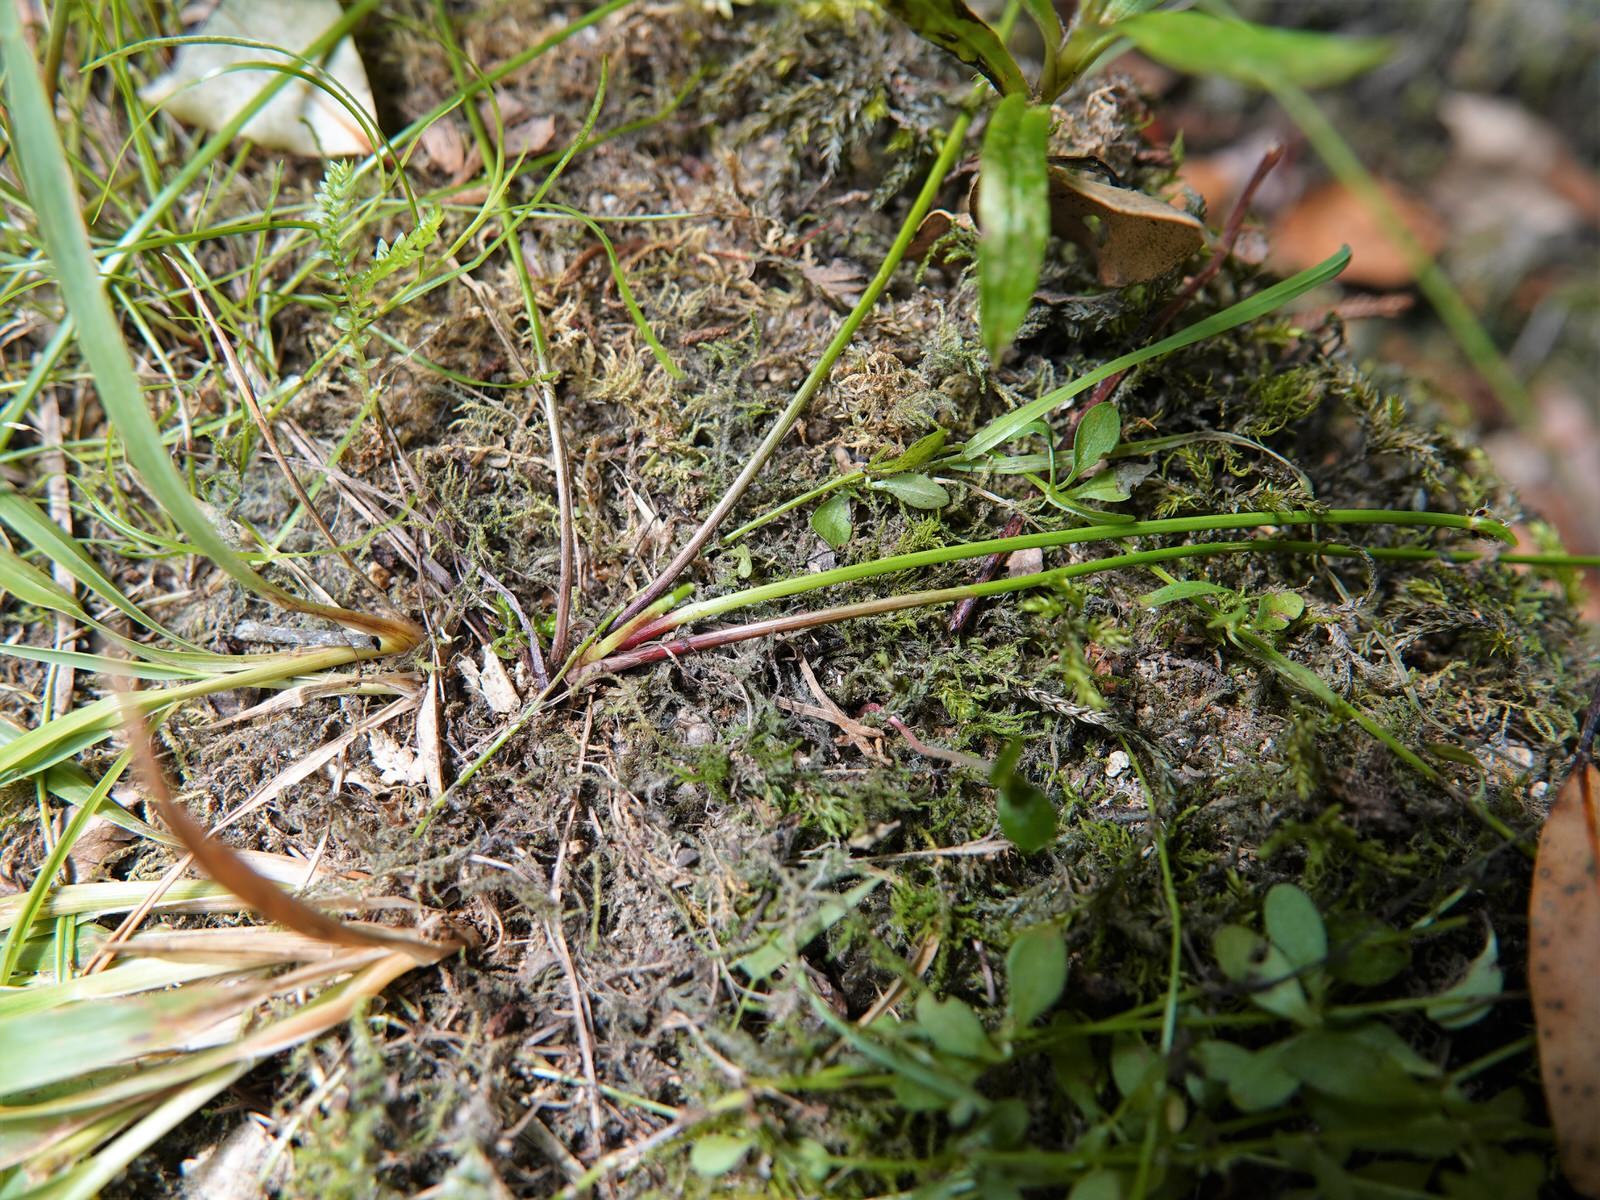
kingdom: Plantae
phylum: Tracheophyta
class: Liliopsida
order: Poales
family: Cyperaceae
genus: Isolepis
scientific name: Isolepis inundata
